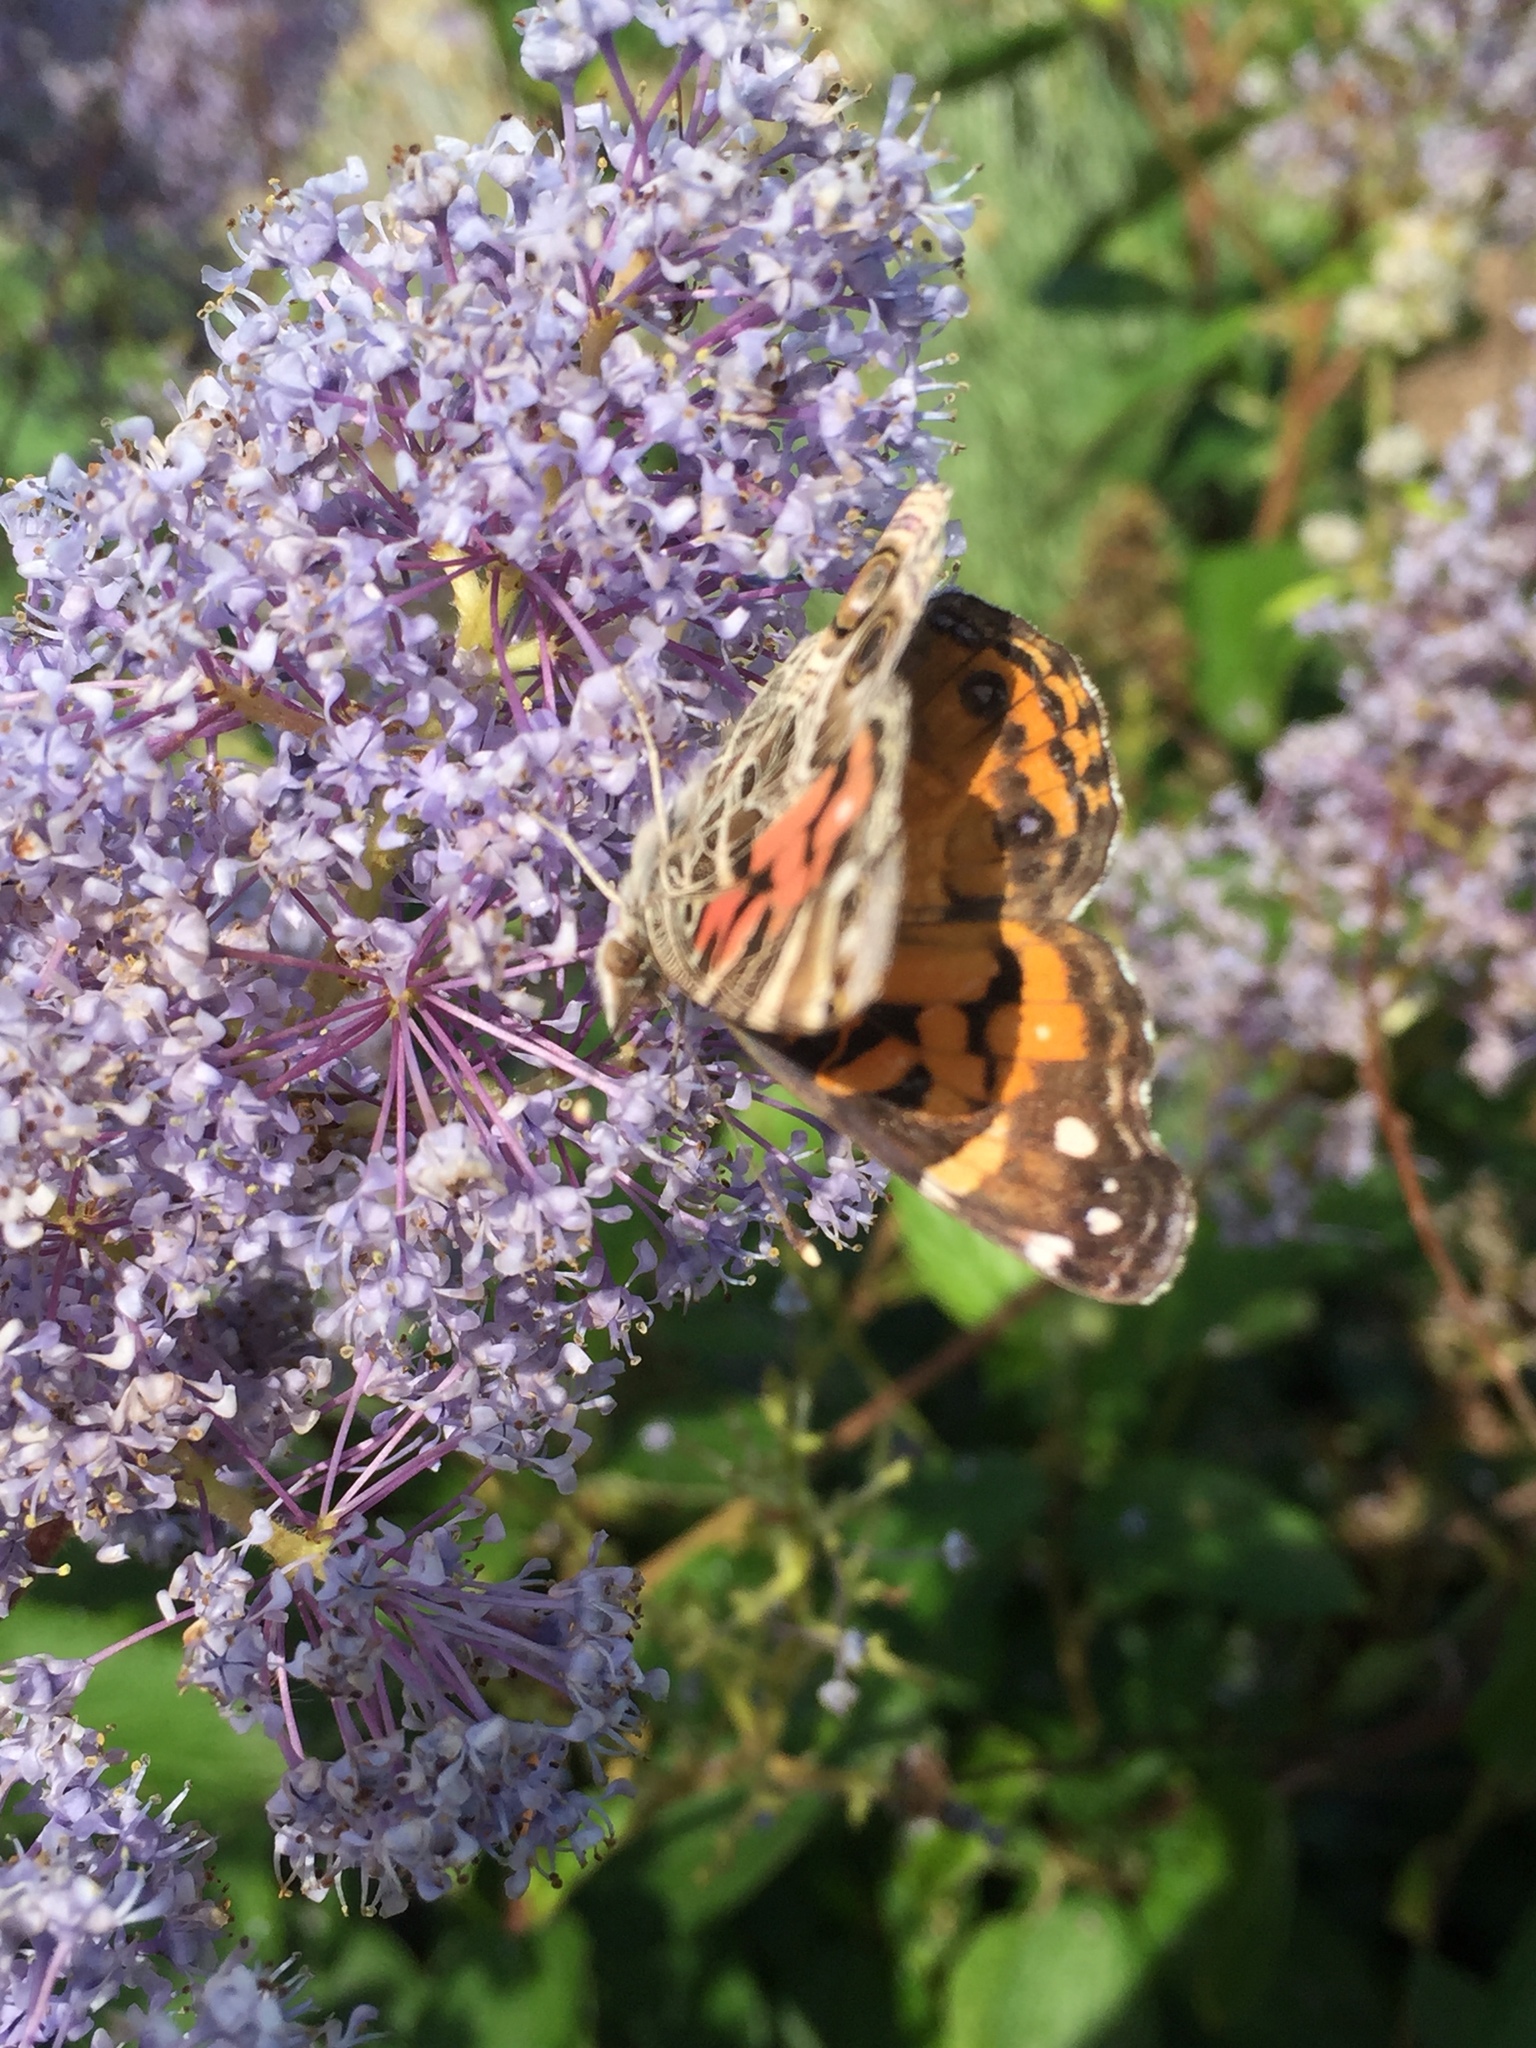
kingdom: Animalia
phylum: Arthropoda
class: Insecta
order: Lepidoptera
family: Nymphalidae
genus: Vanessa
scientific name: Vanessa virginiensis
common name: American lady
